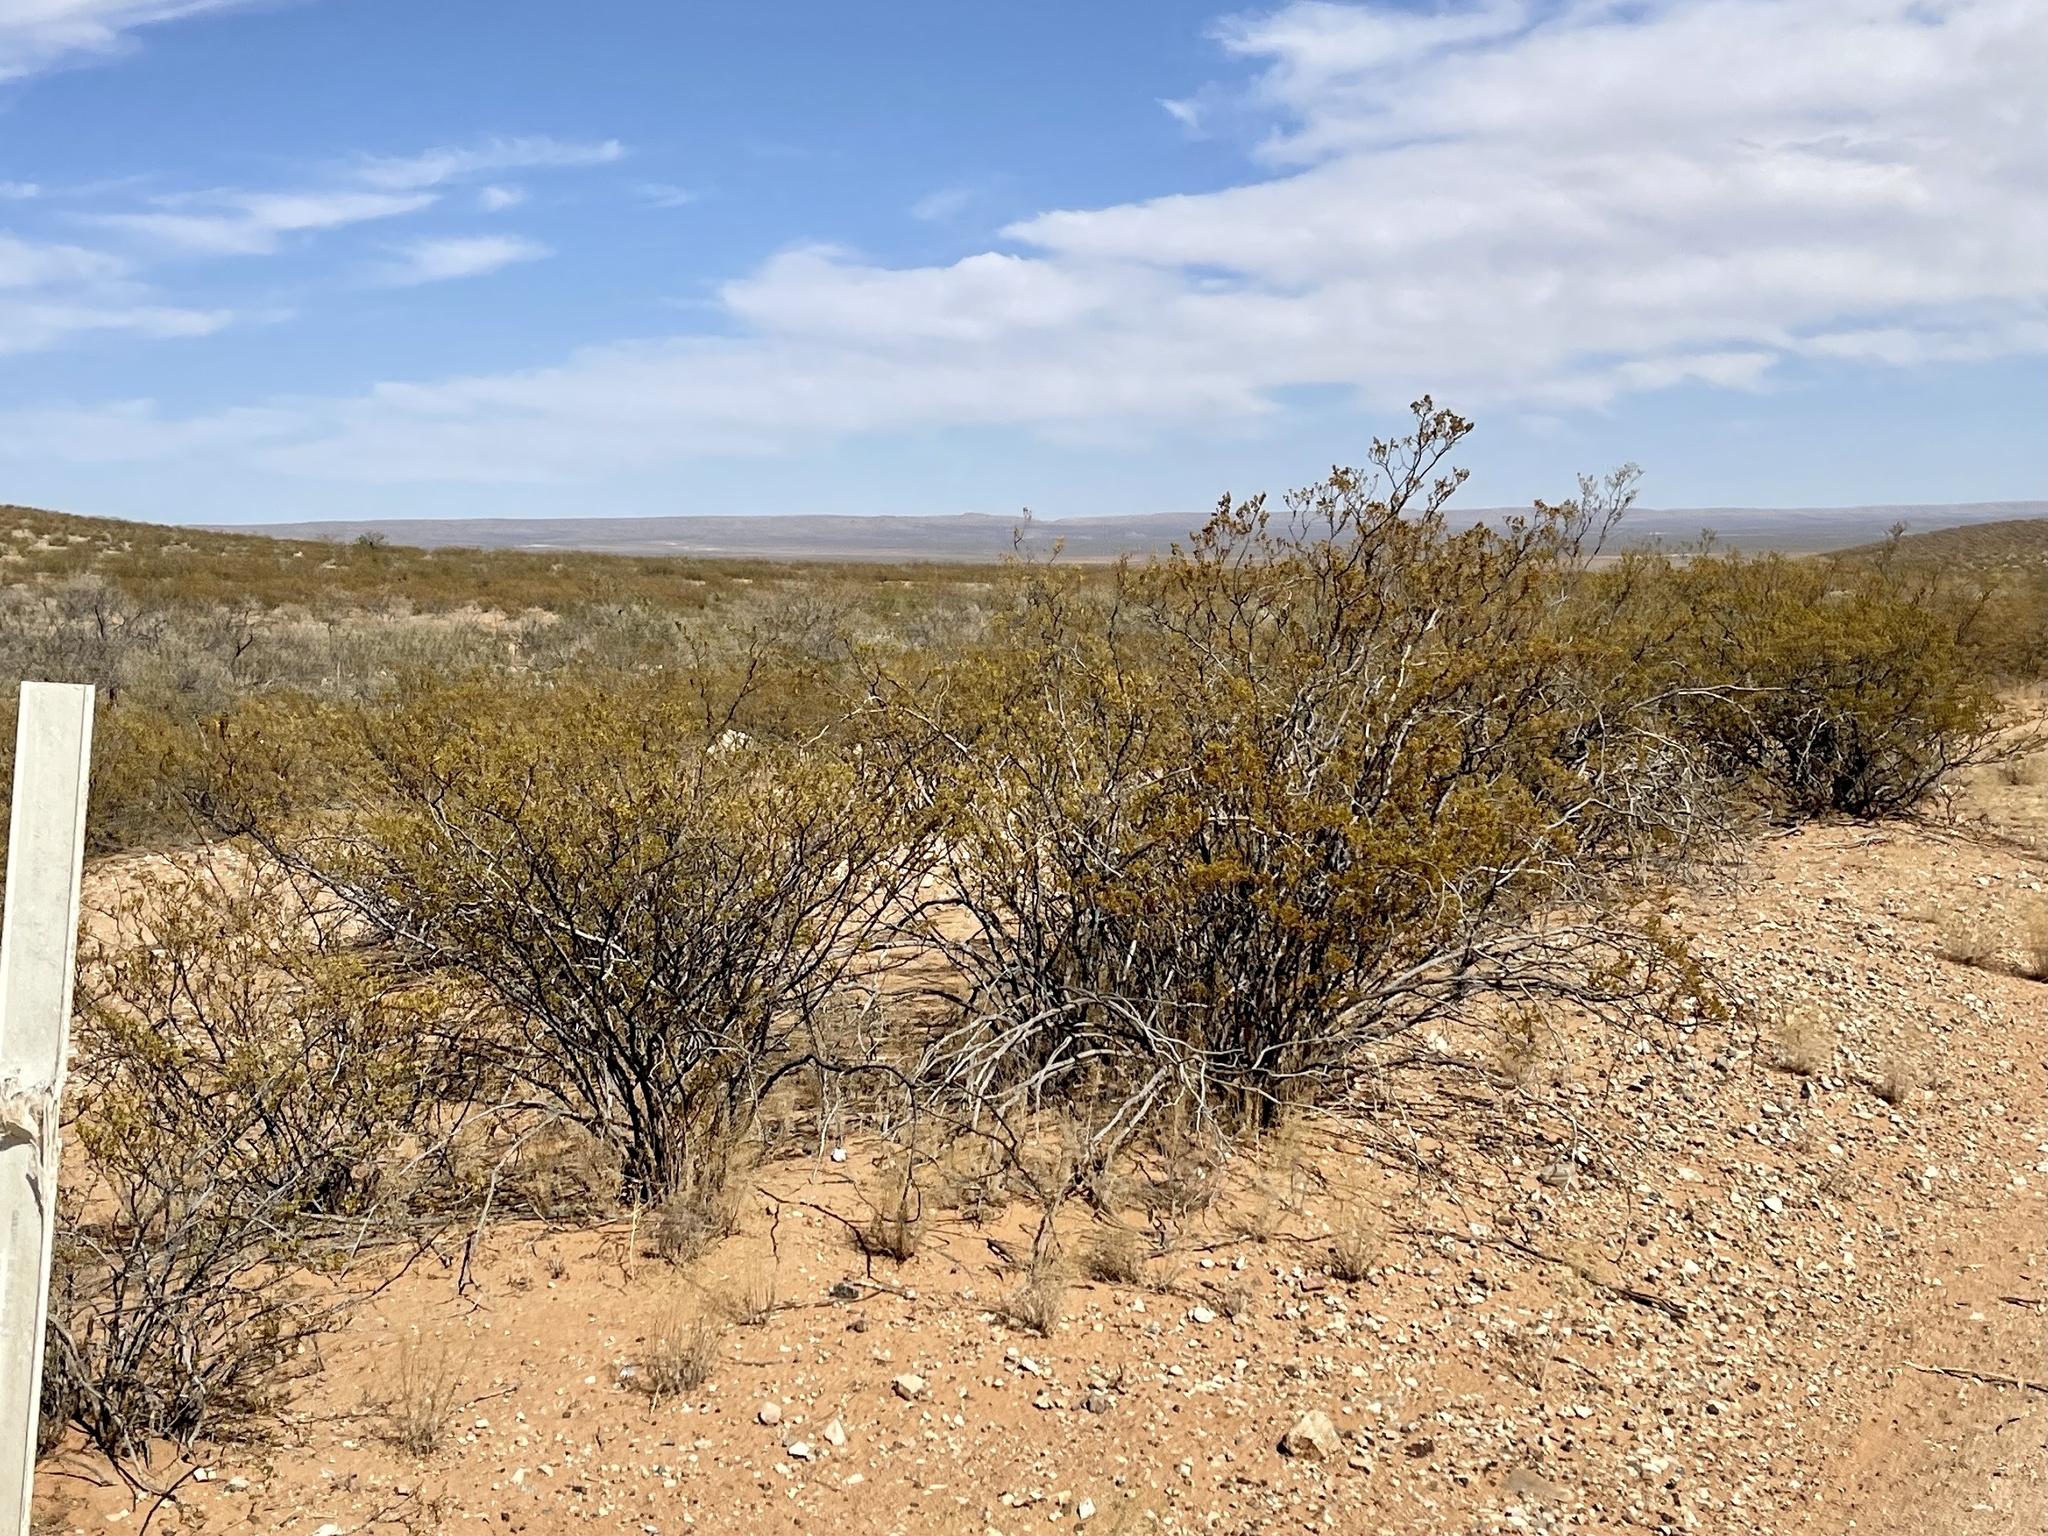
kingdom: Plantae
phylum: Tracheophyta
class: Magnoliopsida
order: Zygophyllales
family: Zygophyllaceae
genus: Larrea
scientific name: Larrea tridentata
